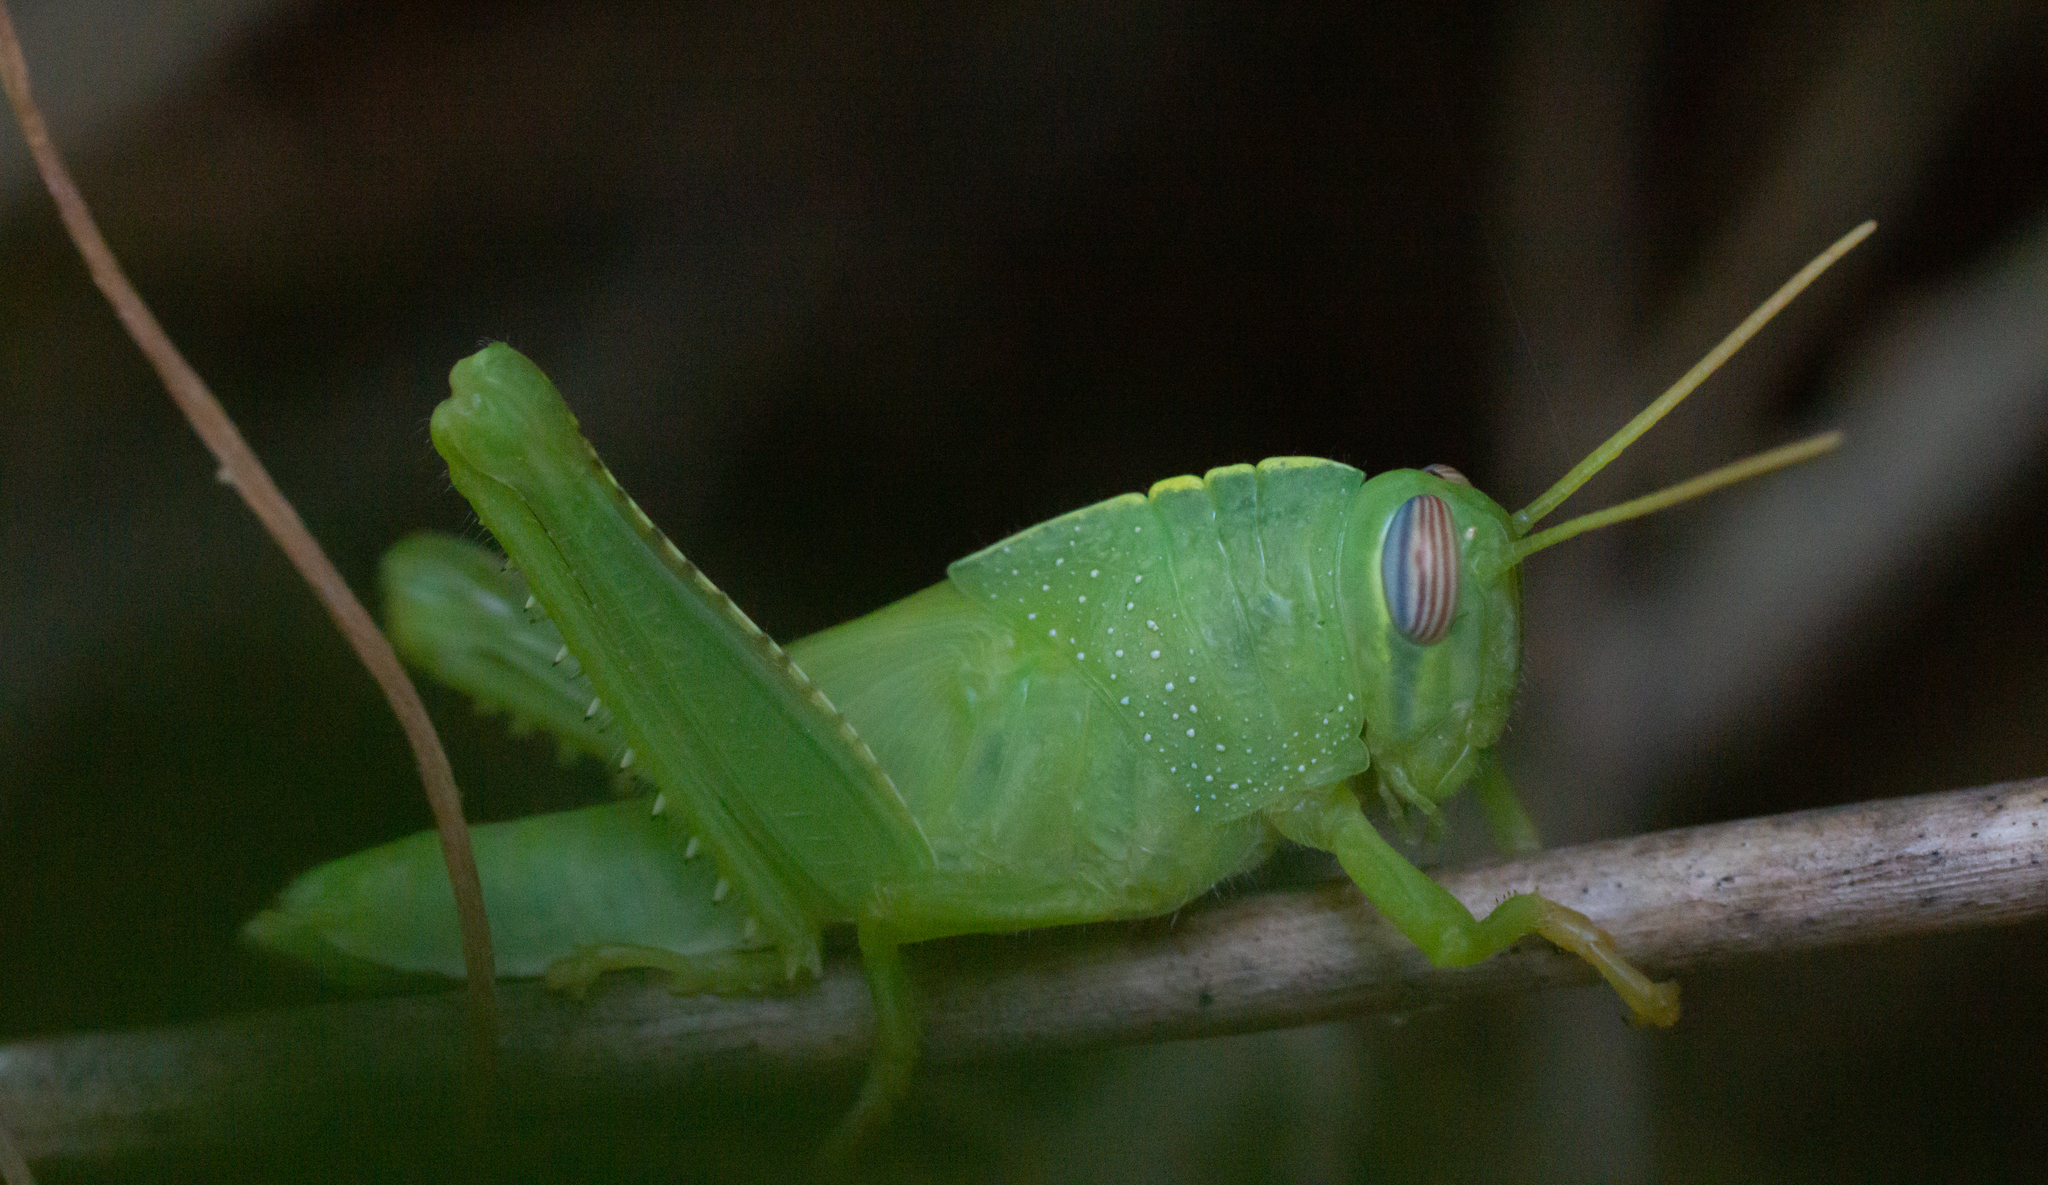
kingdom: Animalia
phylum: Arthropoda
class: Insecta
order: Orthoptera
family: Acrididae
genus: Anacridium
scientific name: Anacridium aegyptium
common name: Egyptian grasshopper
